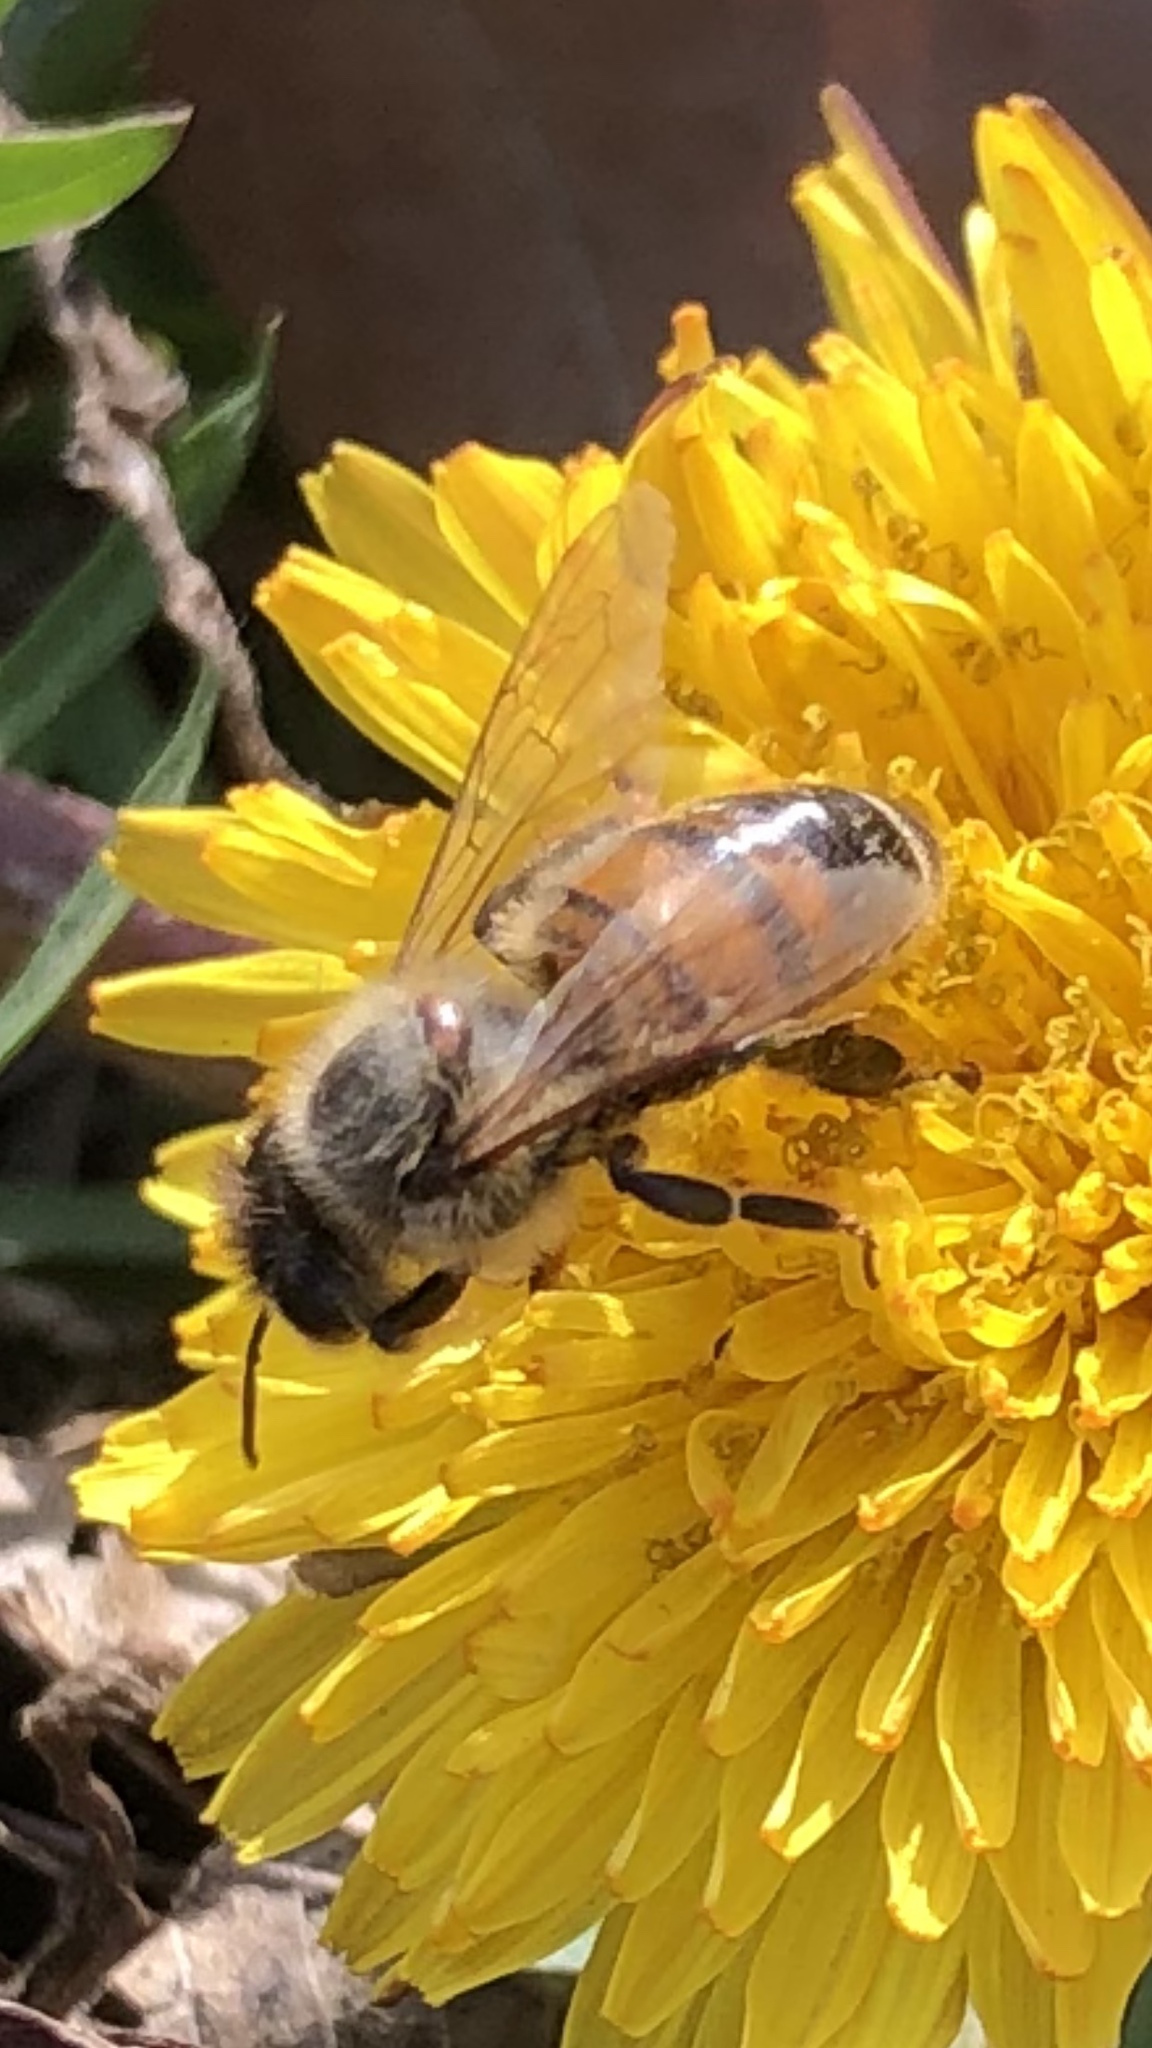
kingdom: Animalia
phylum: Arthropoda
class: Insecta
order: Hymenoptera
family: Apidae
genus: Apis
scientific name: Apis mellifera
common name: Honey bee
